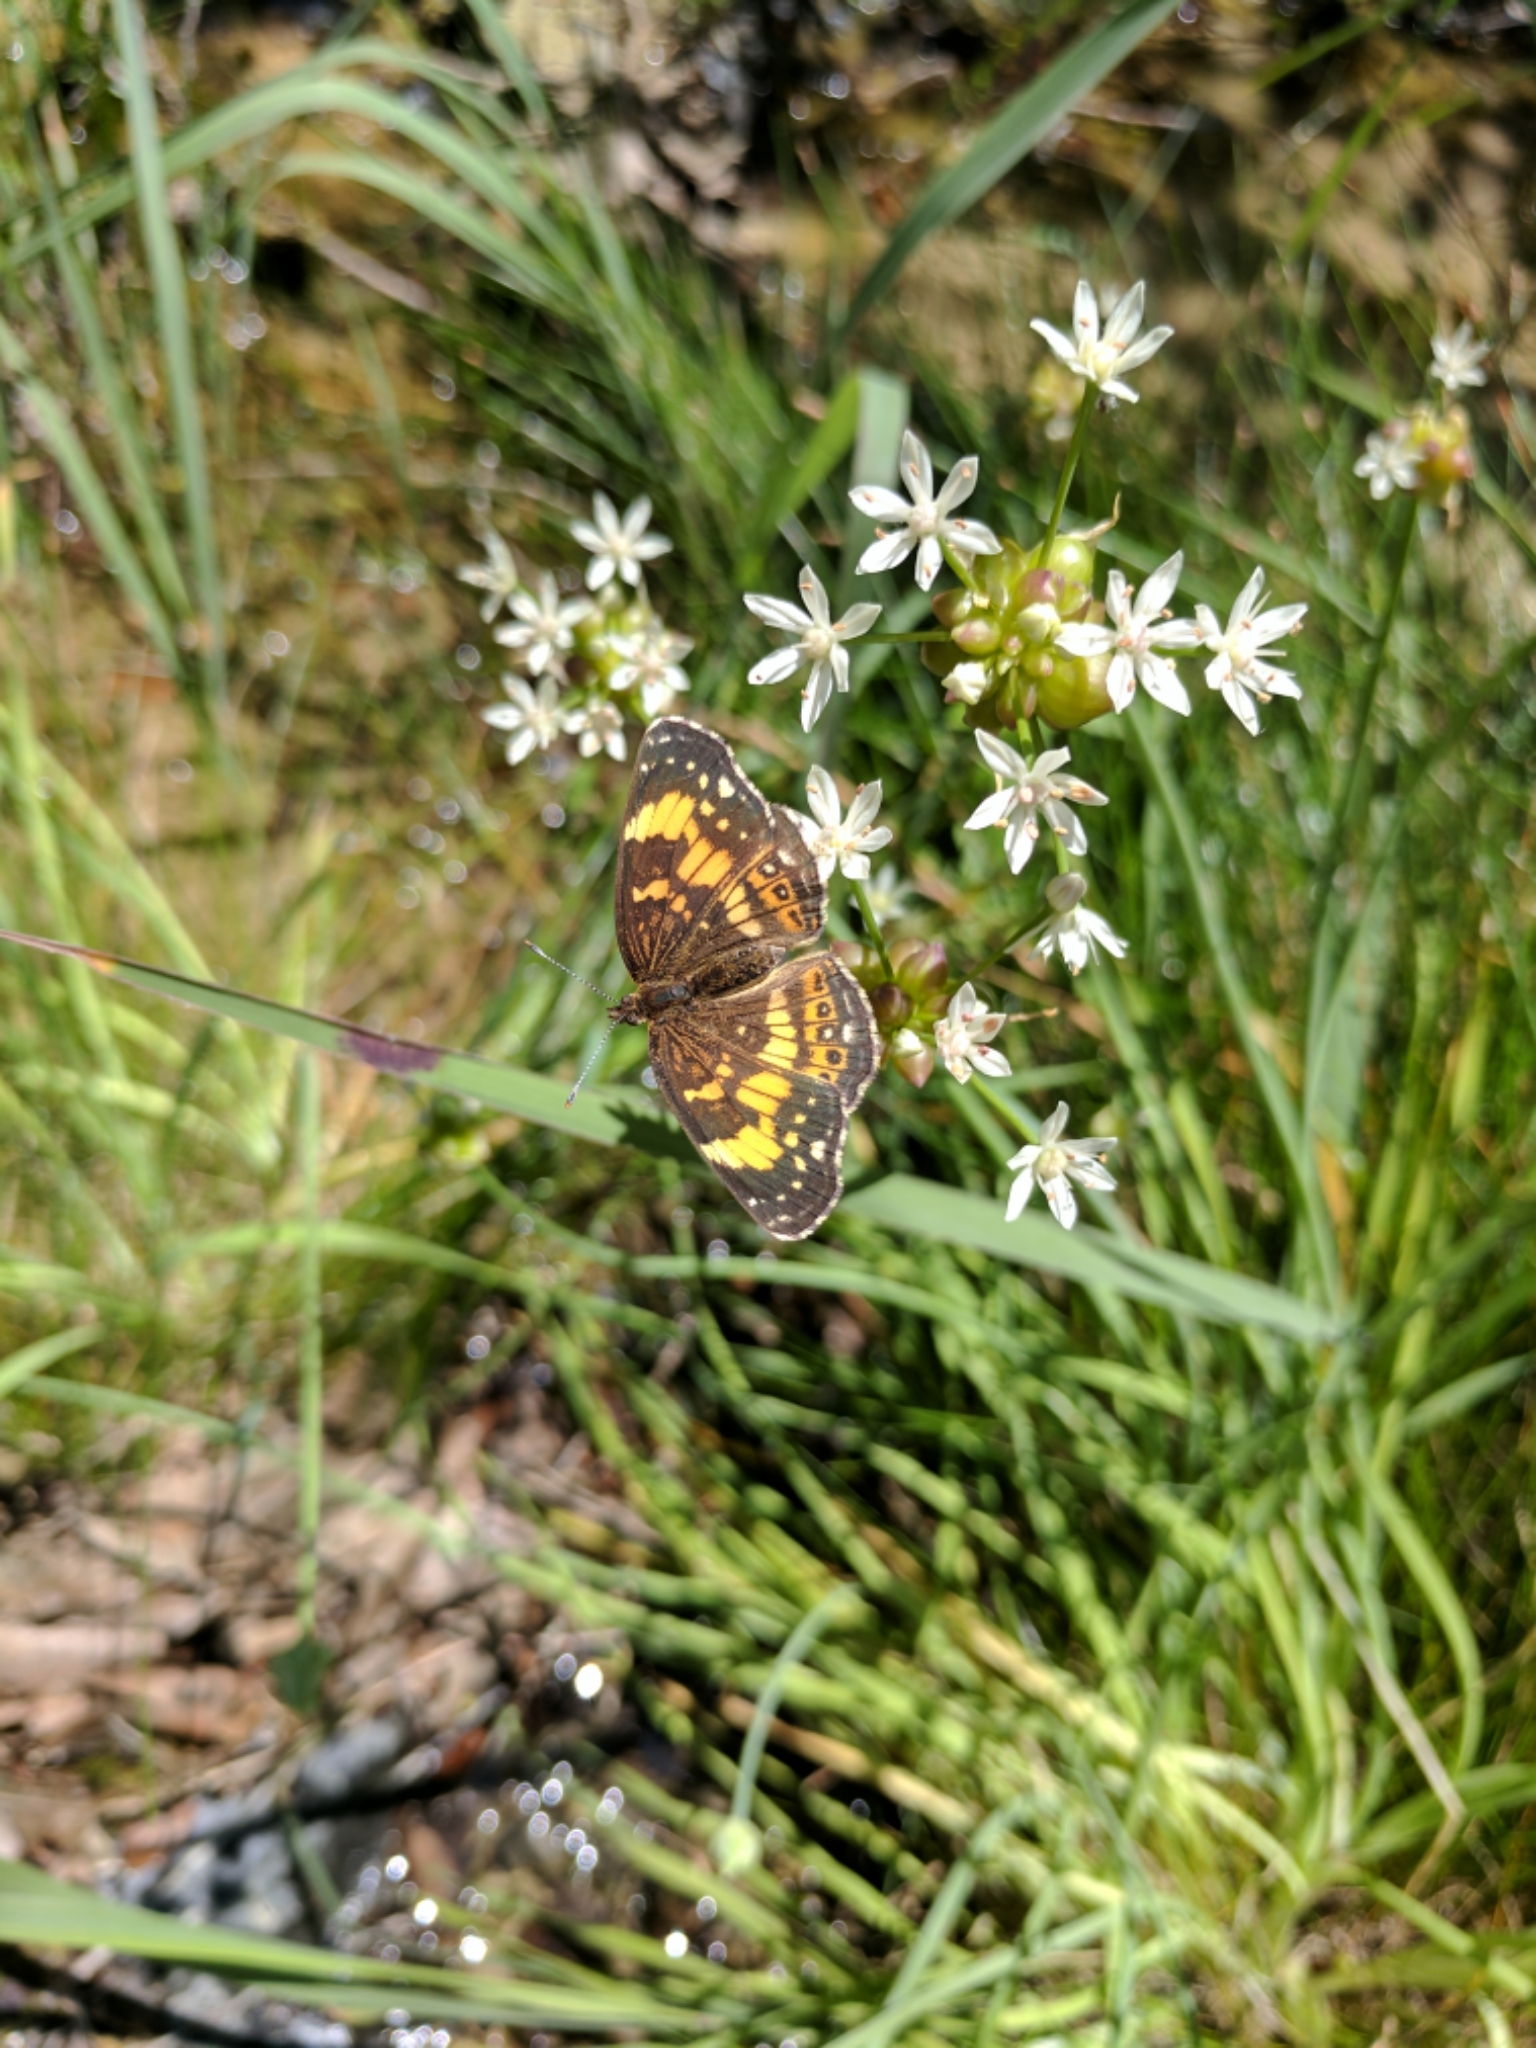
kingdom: Animalia
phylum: Arthropoda
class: Insecta
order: Lepidoptera
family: Nymphalidae
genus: Chlosyne
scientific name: Chlosyne nycteis
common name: Silvery checkerspot
